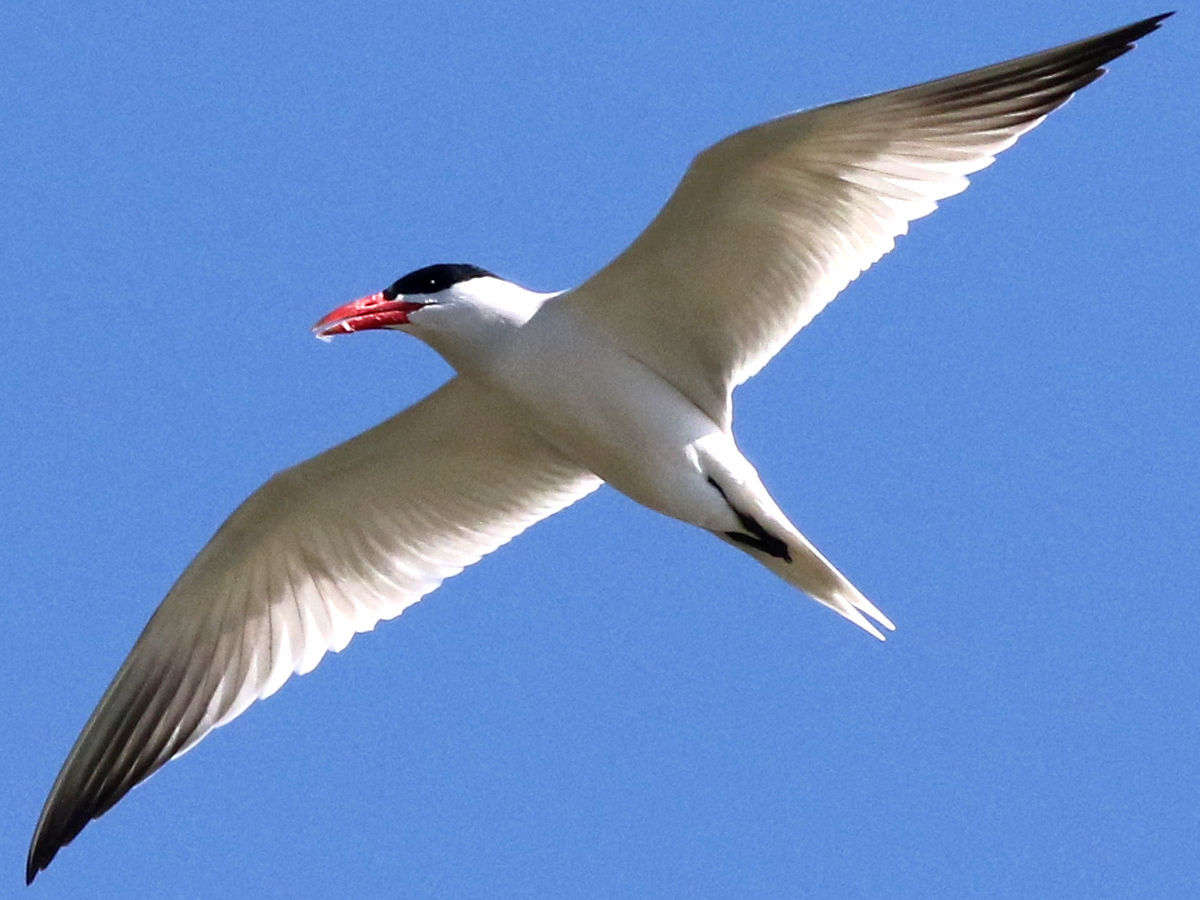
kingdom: Animalia
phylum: Chordata
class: Aves
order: Charadriiformes
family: Laridae
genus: Hydroprogne
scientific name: Hydroprogne caspia
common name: Caspian tern
